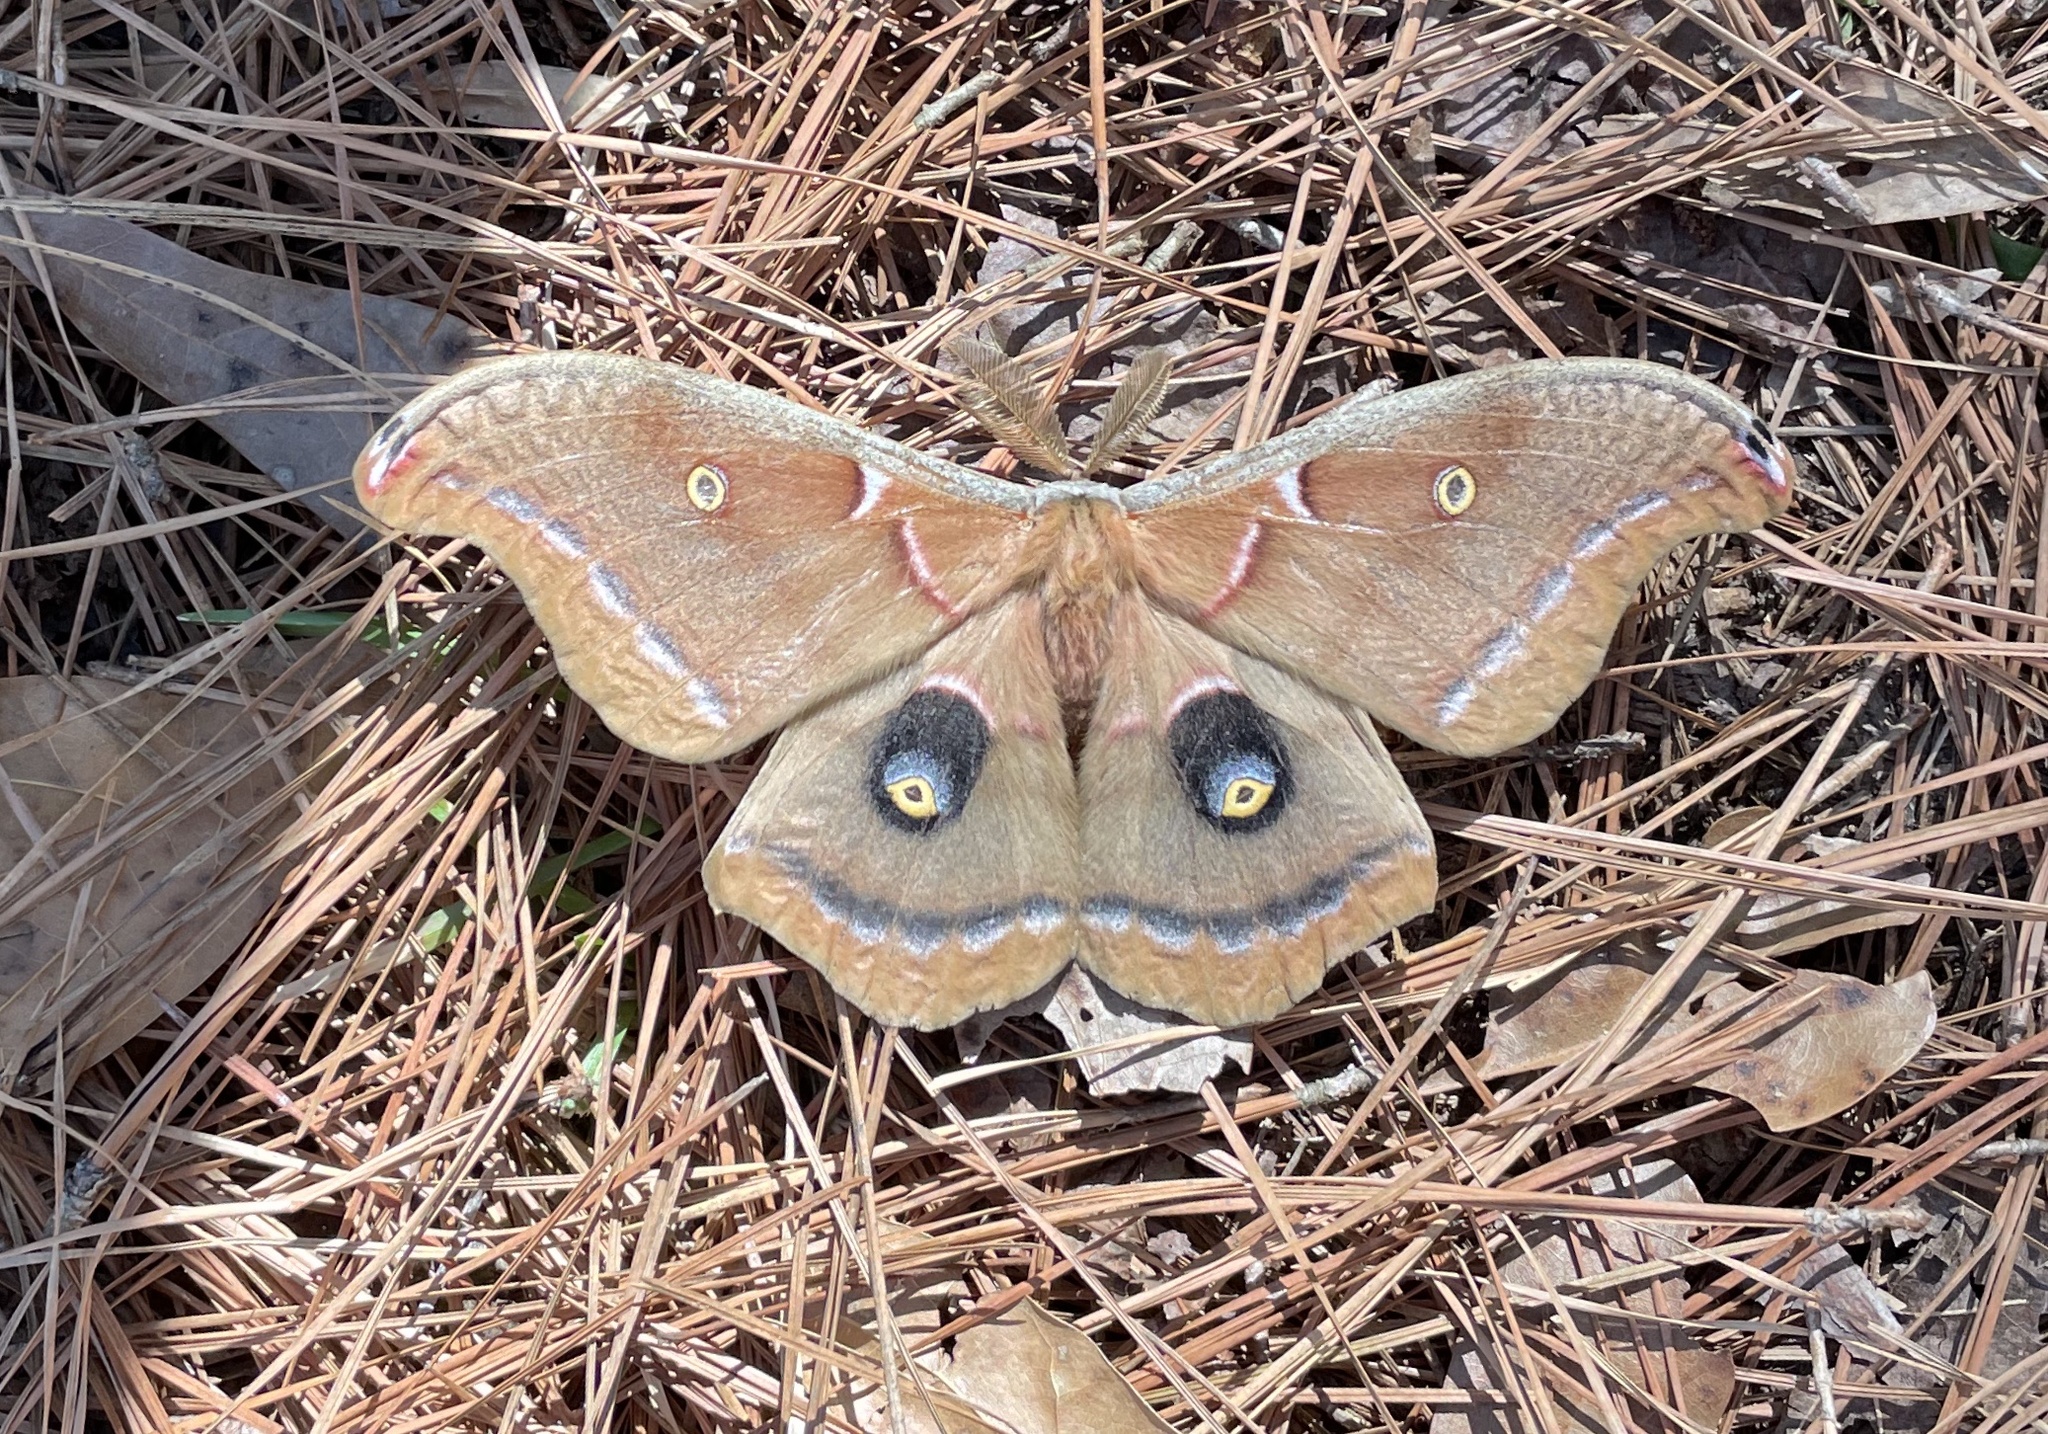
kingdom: Animalia
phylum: Arthropoda
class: Insecta
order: Lepidoptera
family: Saturniidae
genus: Antheraea
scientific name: Antheraea polyphemus
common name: Polyphemus moth
